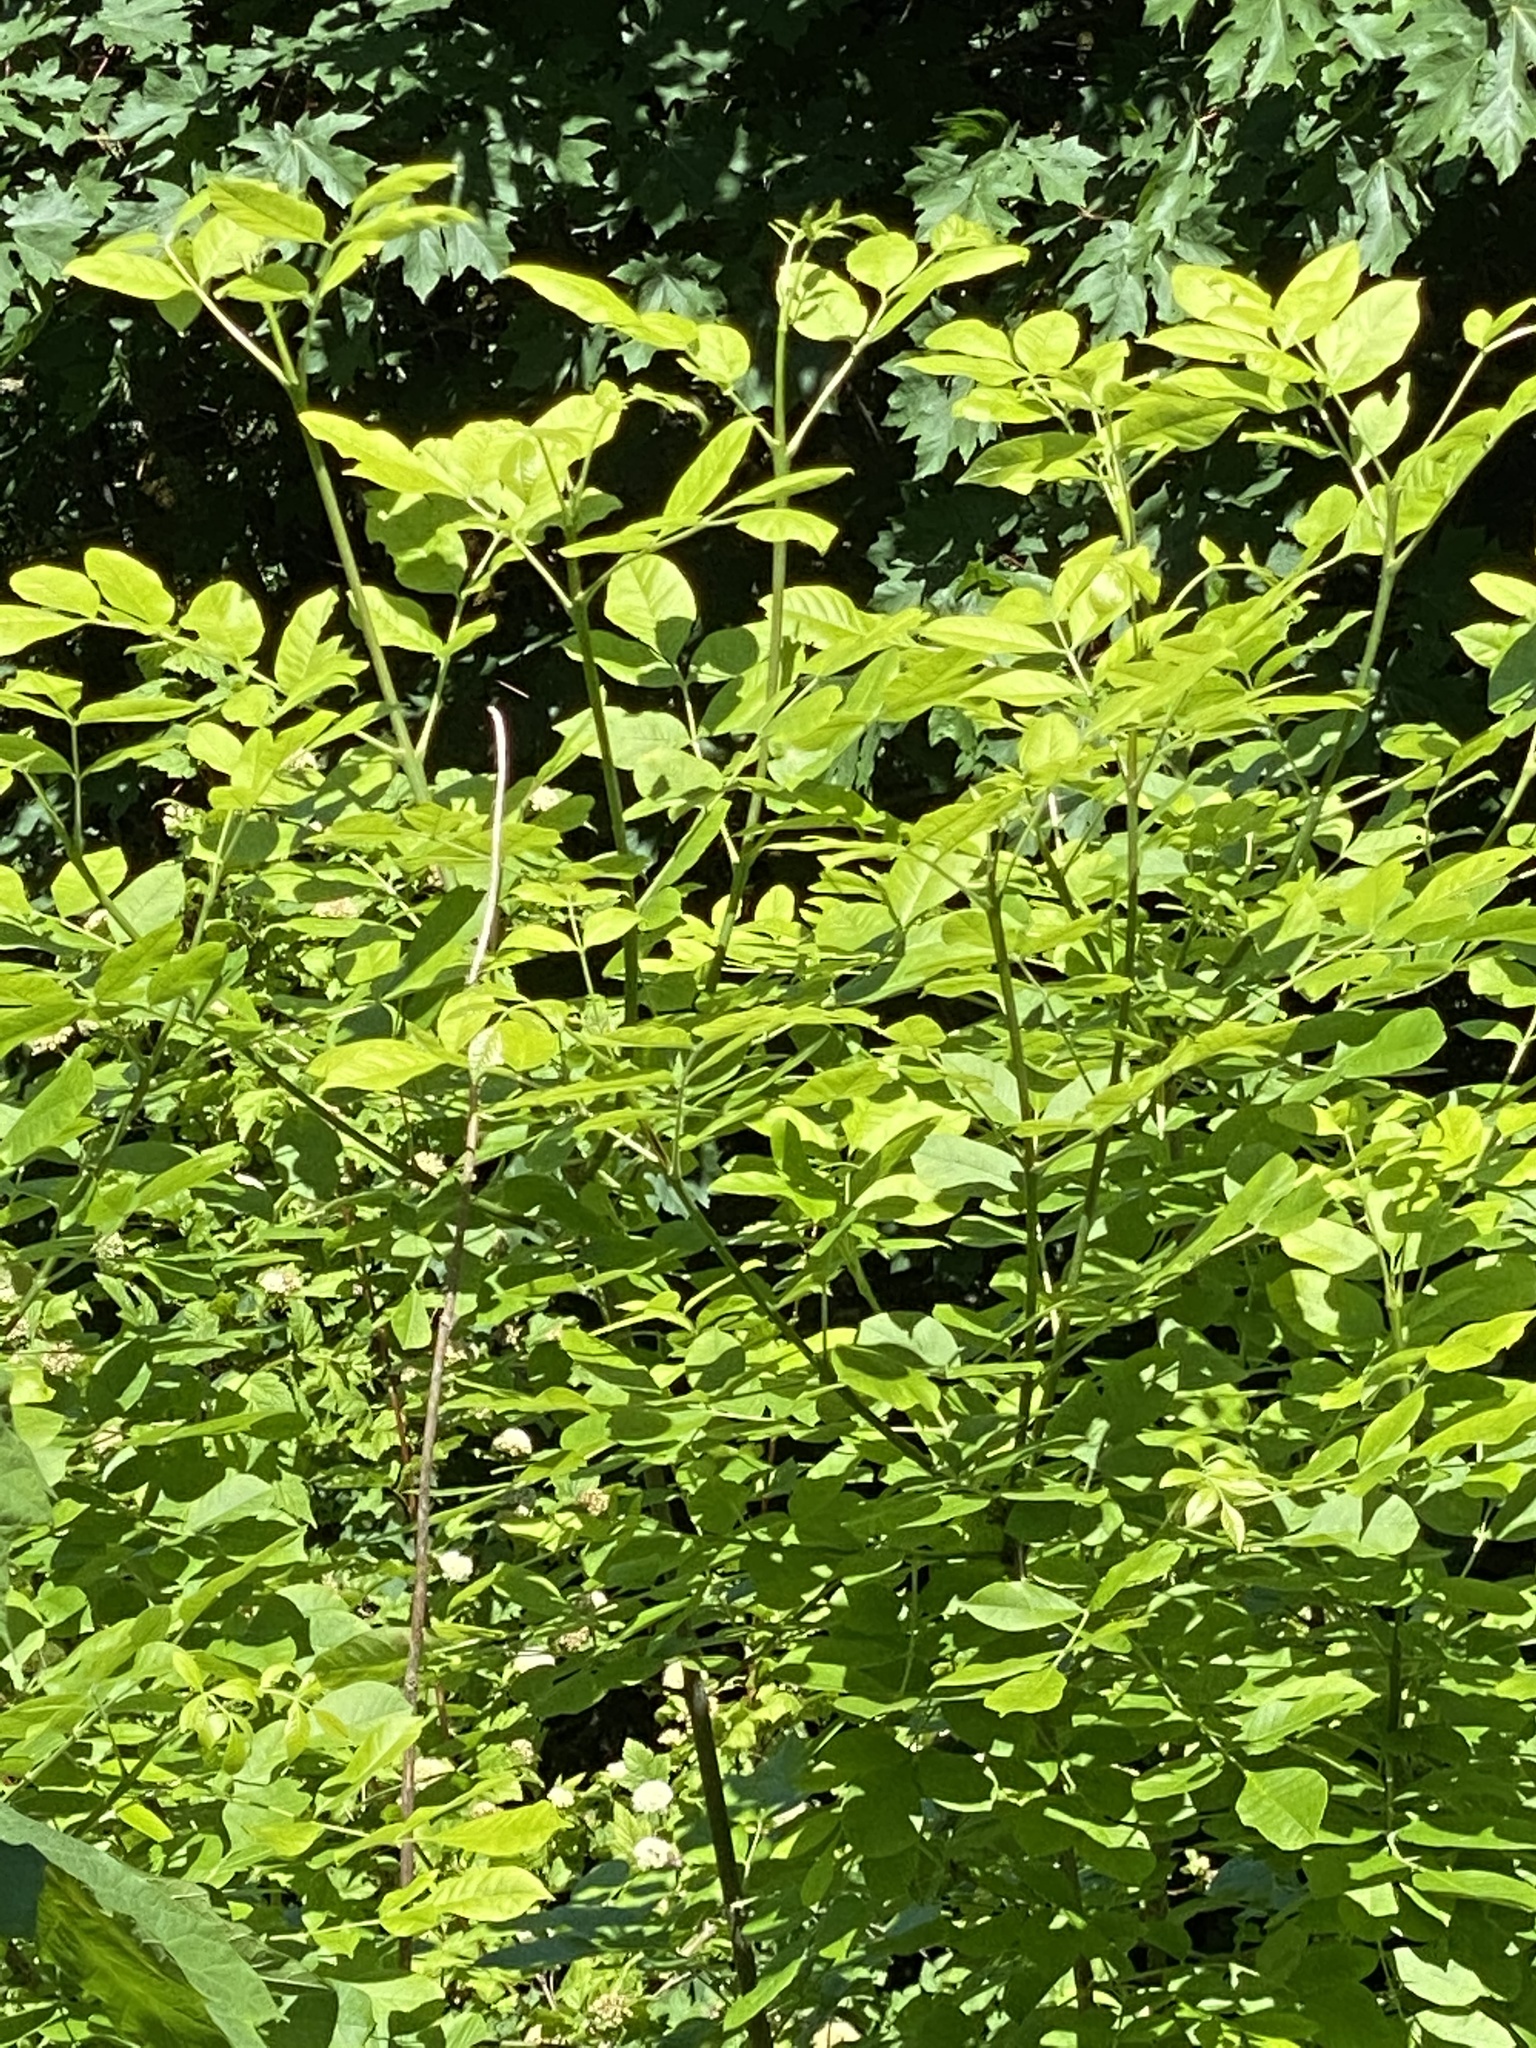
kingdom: Plantae
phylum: Tracheophyta
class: Magnoliopsida
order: Lamiales
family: Oleaceae
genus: Fraxinus
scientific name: Fraxinus latifolia
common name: Oregon ash
